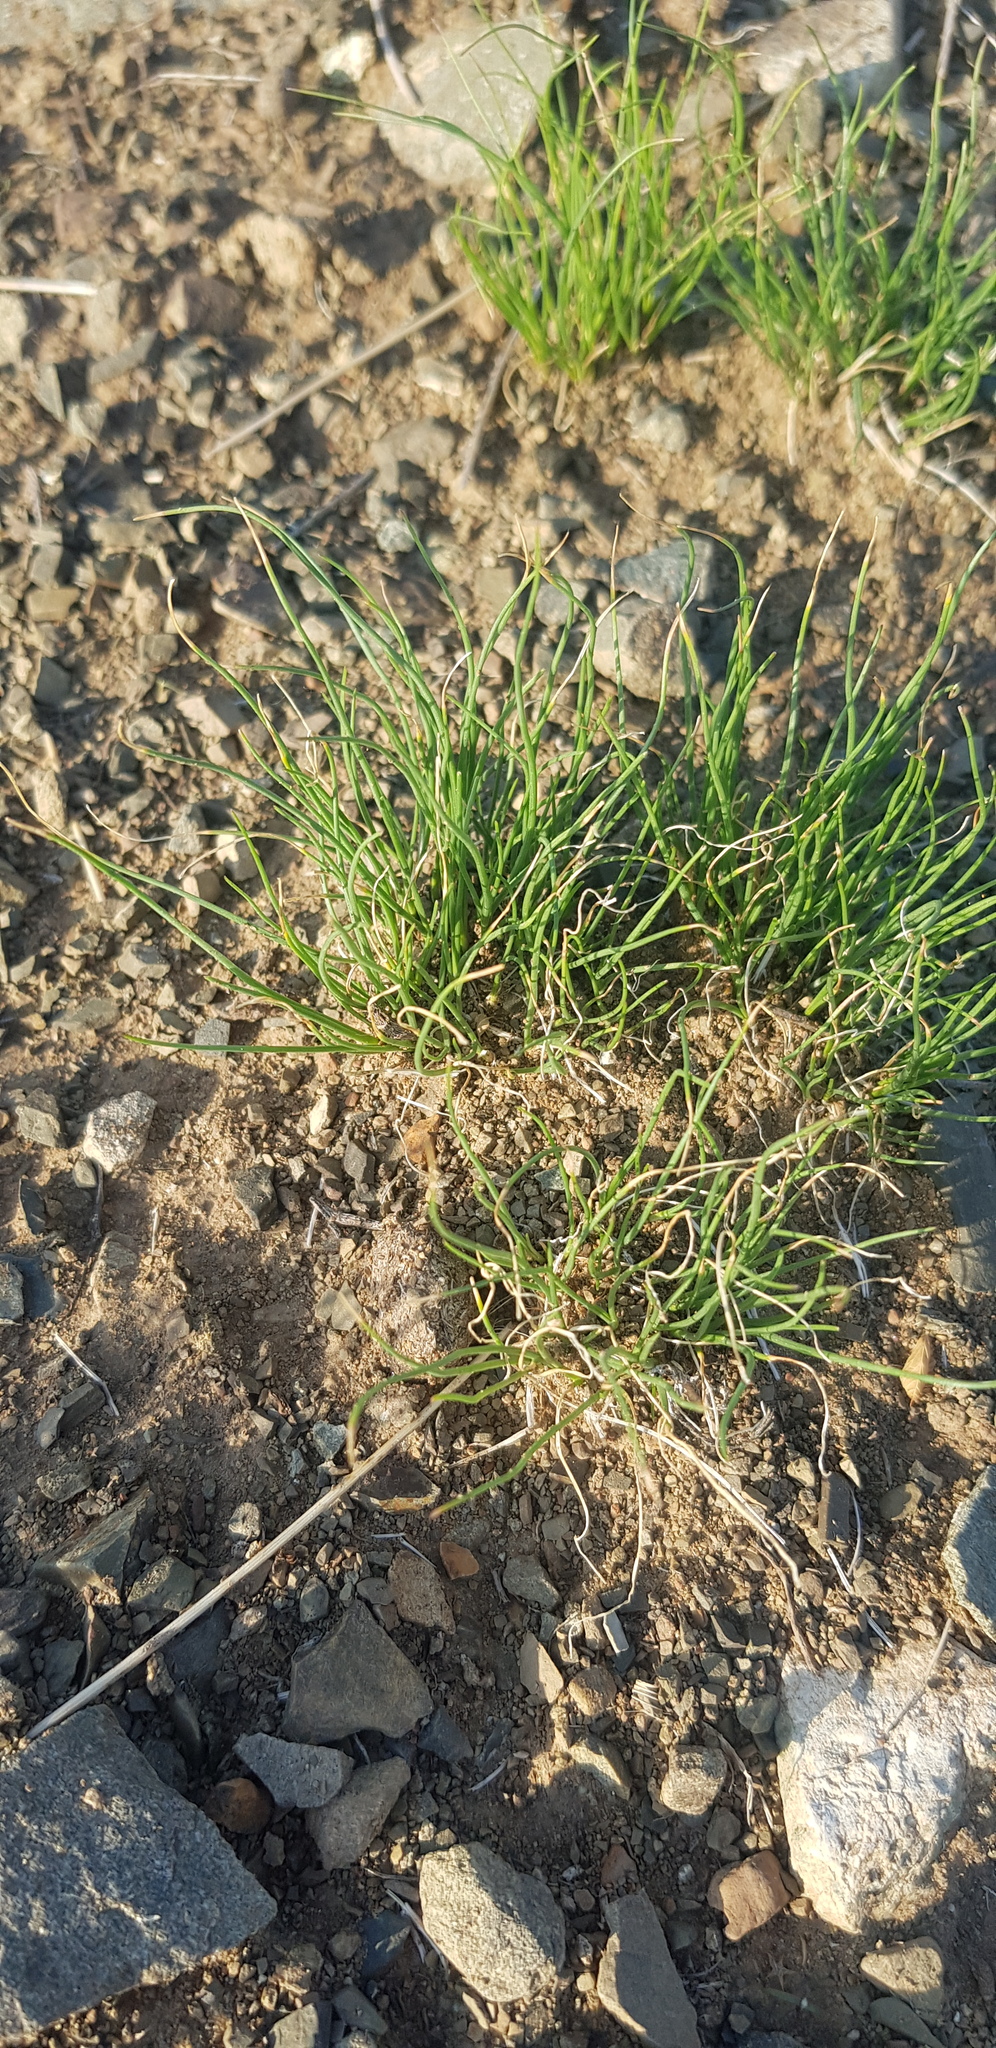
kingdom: Plantae
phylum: Tracheophyta
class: Liliopsida
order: Asparagales
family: Amaryllidaceae
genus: Allium
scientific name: Allium polyrhizum
